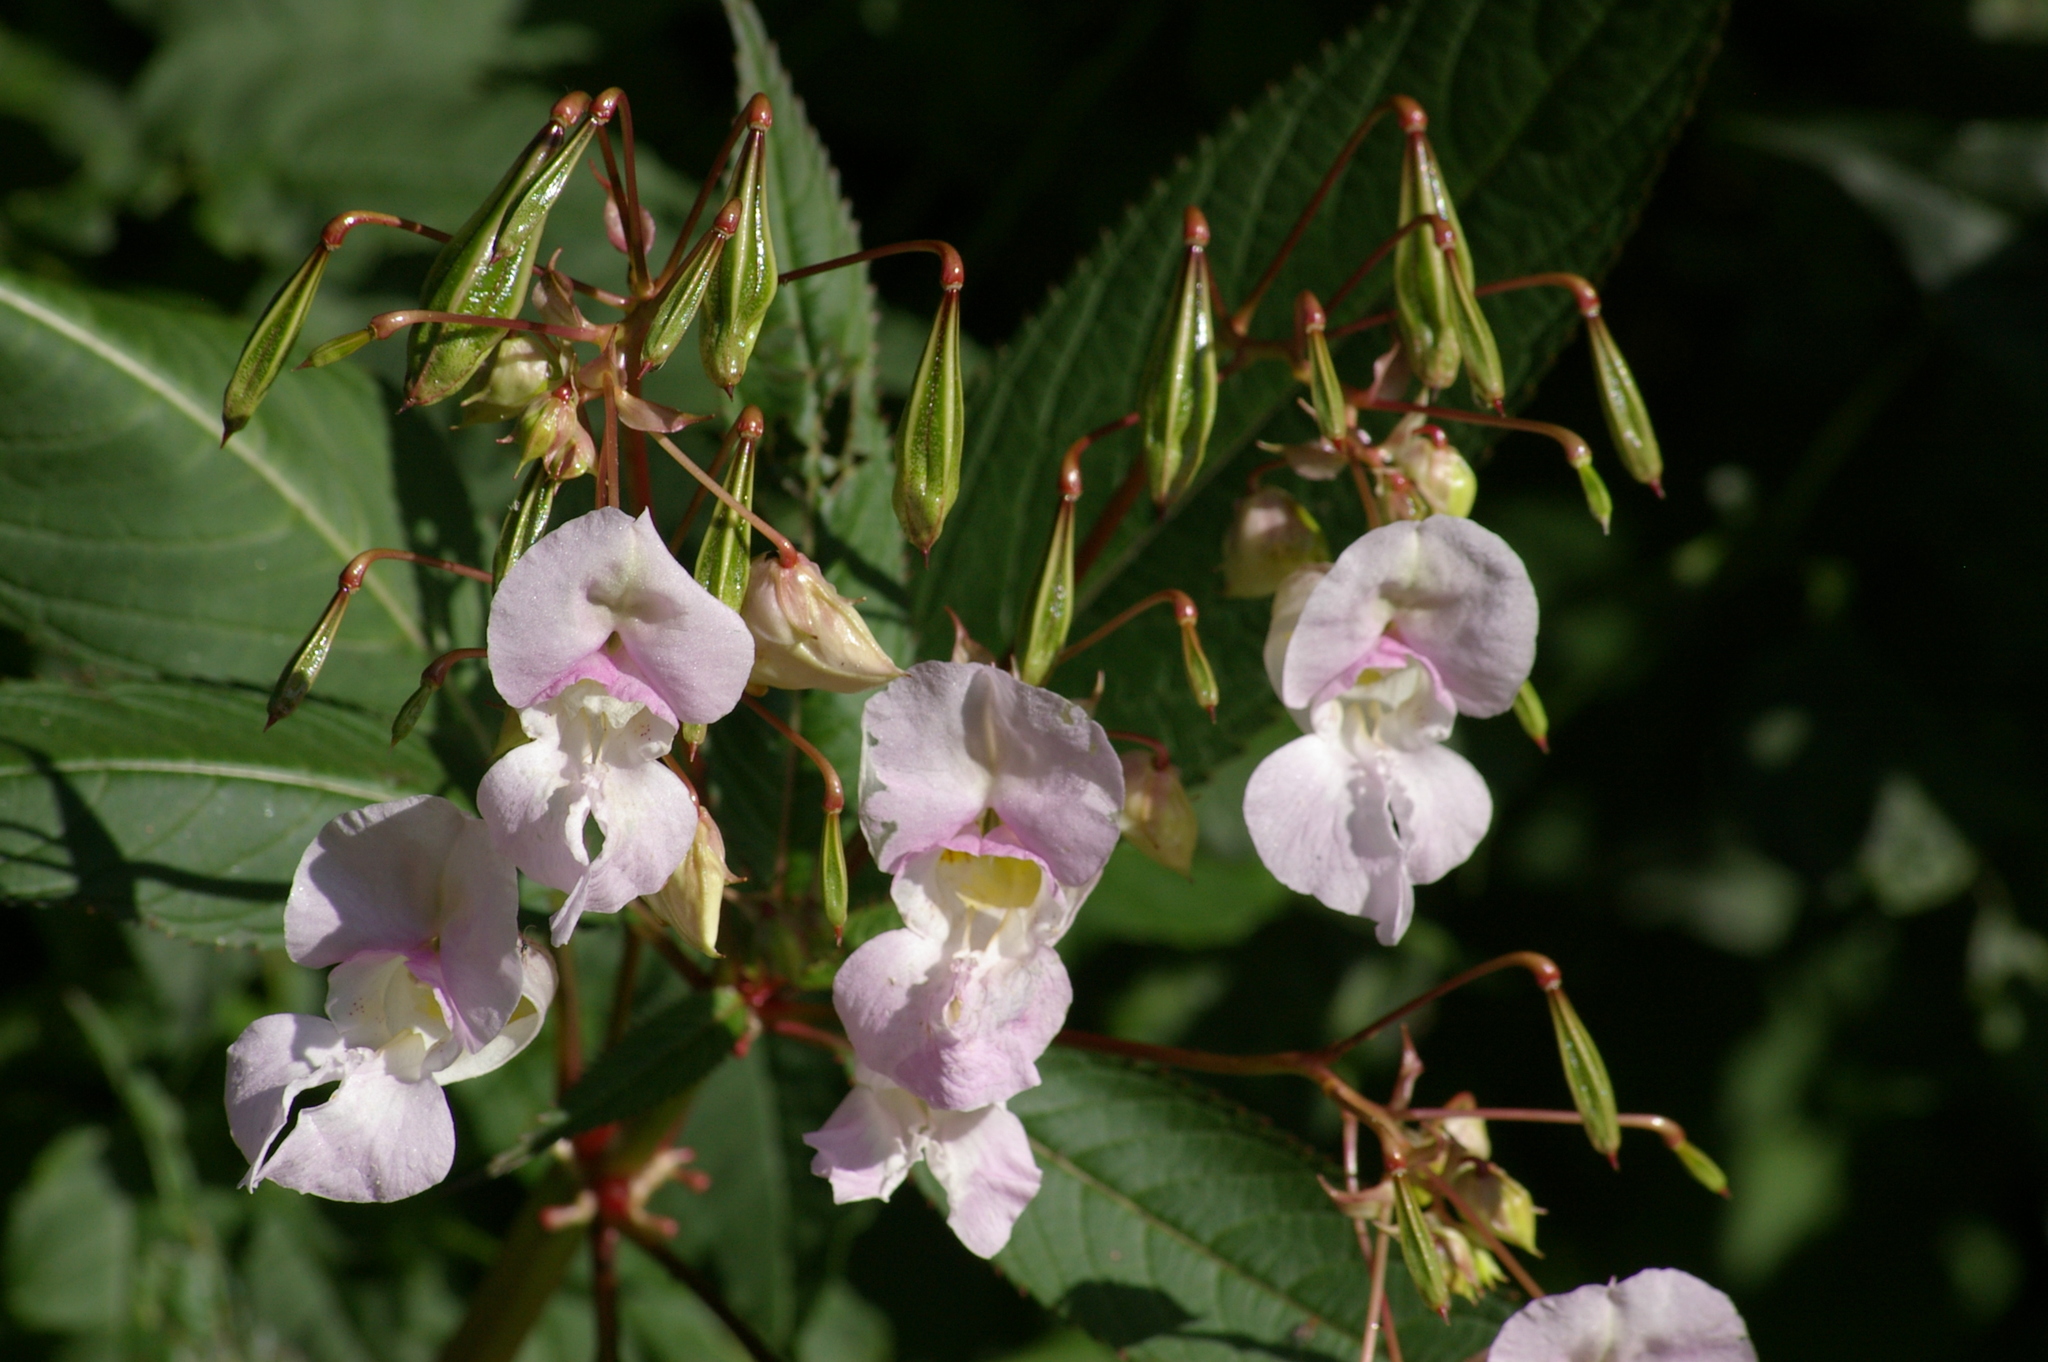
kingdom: Plantae
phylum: Tracheophyta
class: Magnoliopsida
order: Ericales
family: Balsaminaceae
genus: Impatiens
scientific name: Impatiens glandulifera
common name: Himalayan balsam
